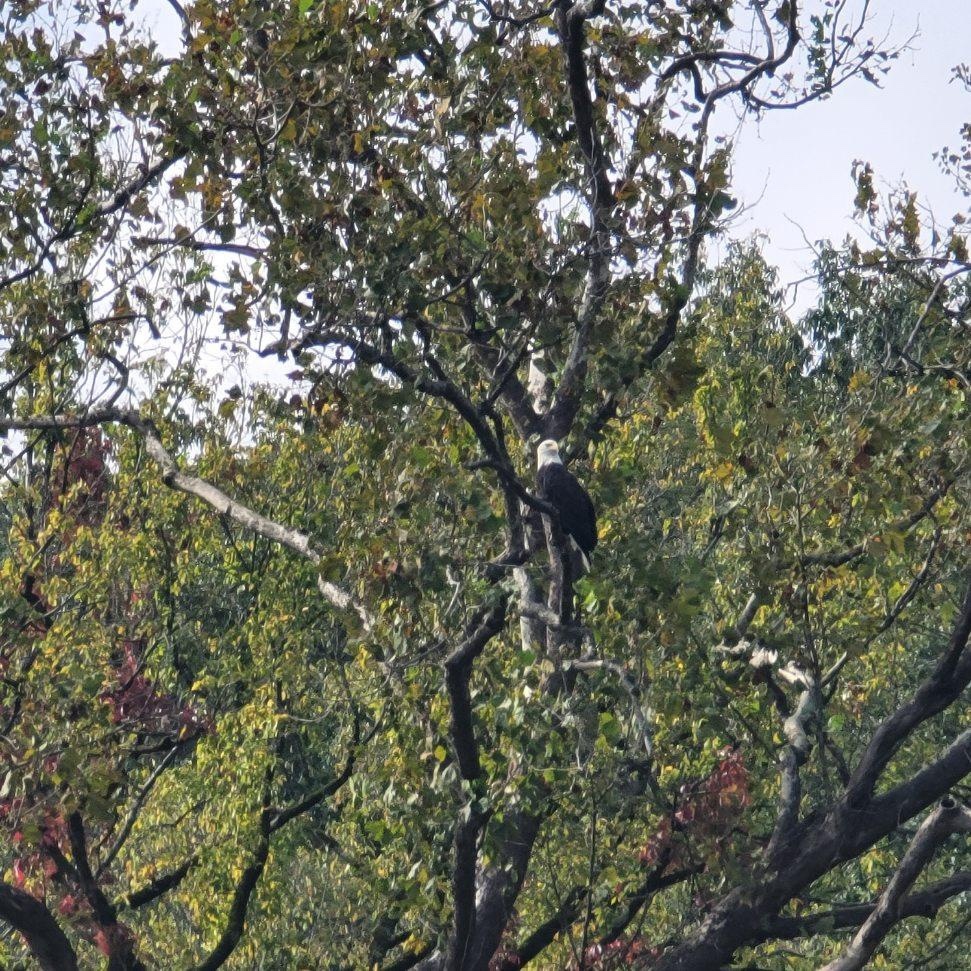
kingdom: Animalia
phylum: Chordata
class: Aves
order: Accipitriformes
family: Accipitridae
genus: Haliaeetus
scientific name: Haliaeetus leucocephalus
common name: Bald eagle
